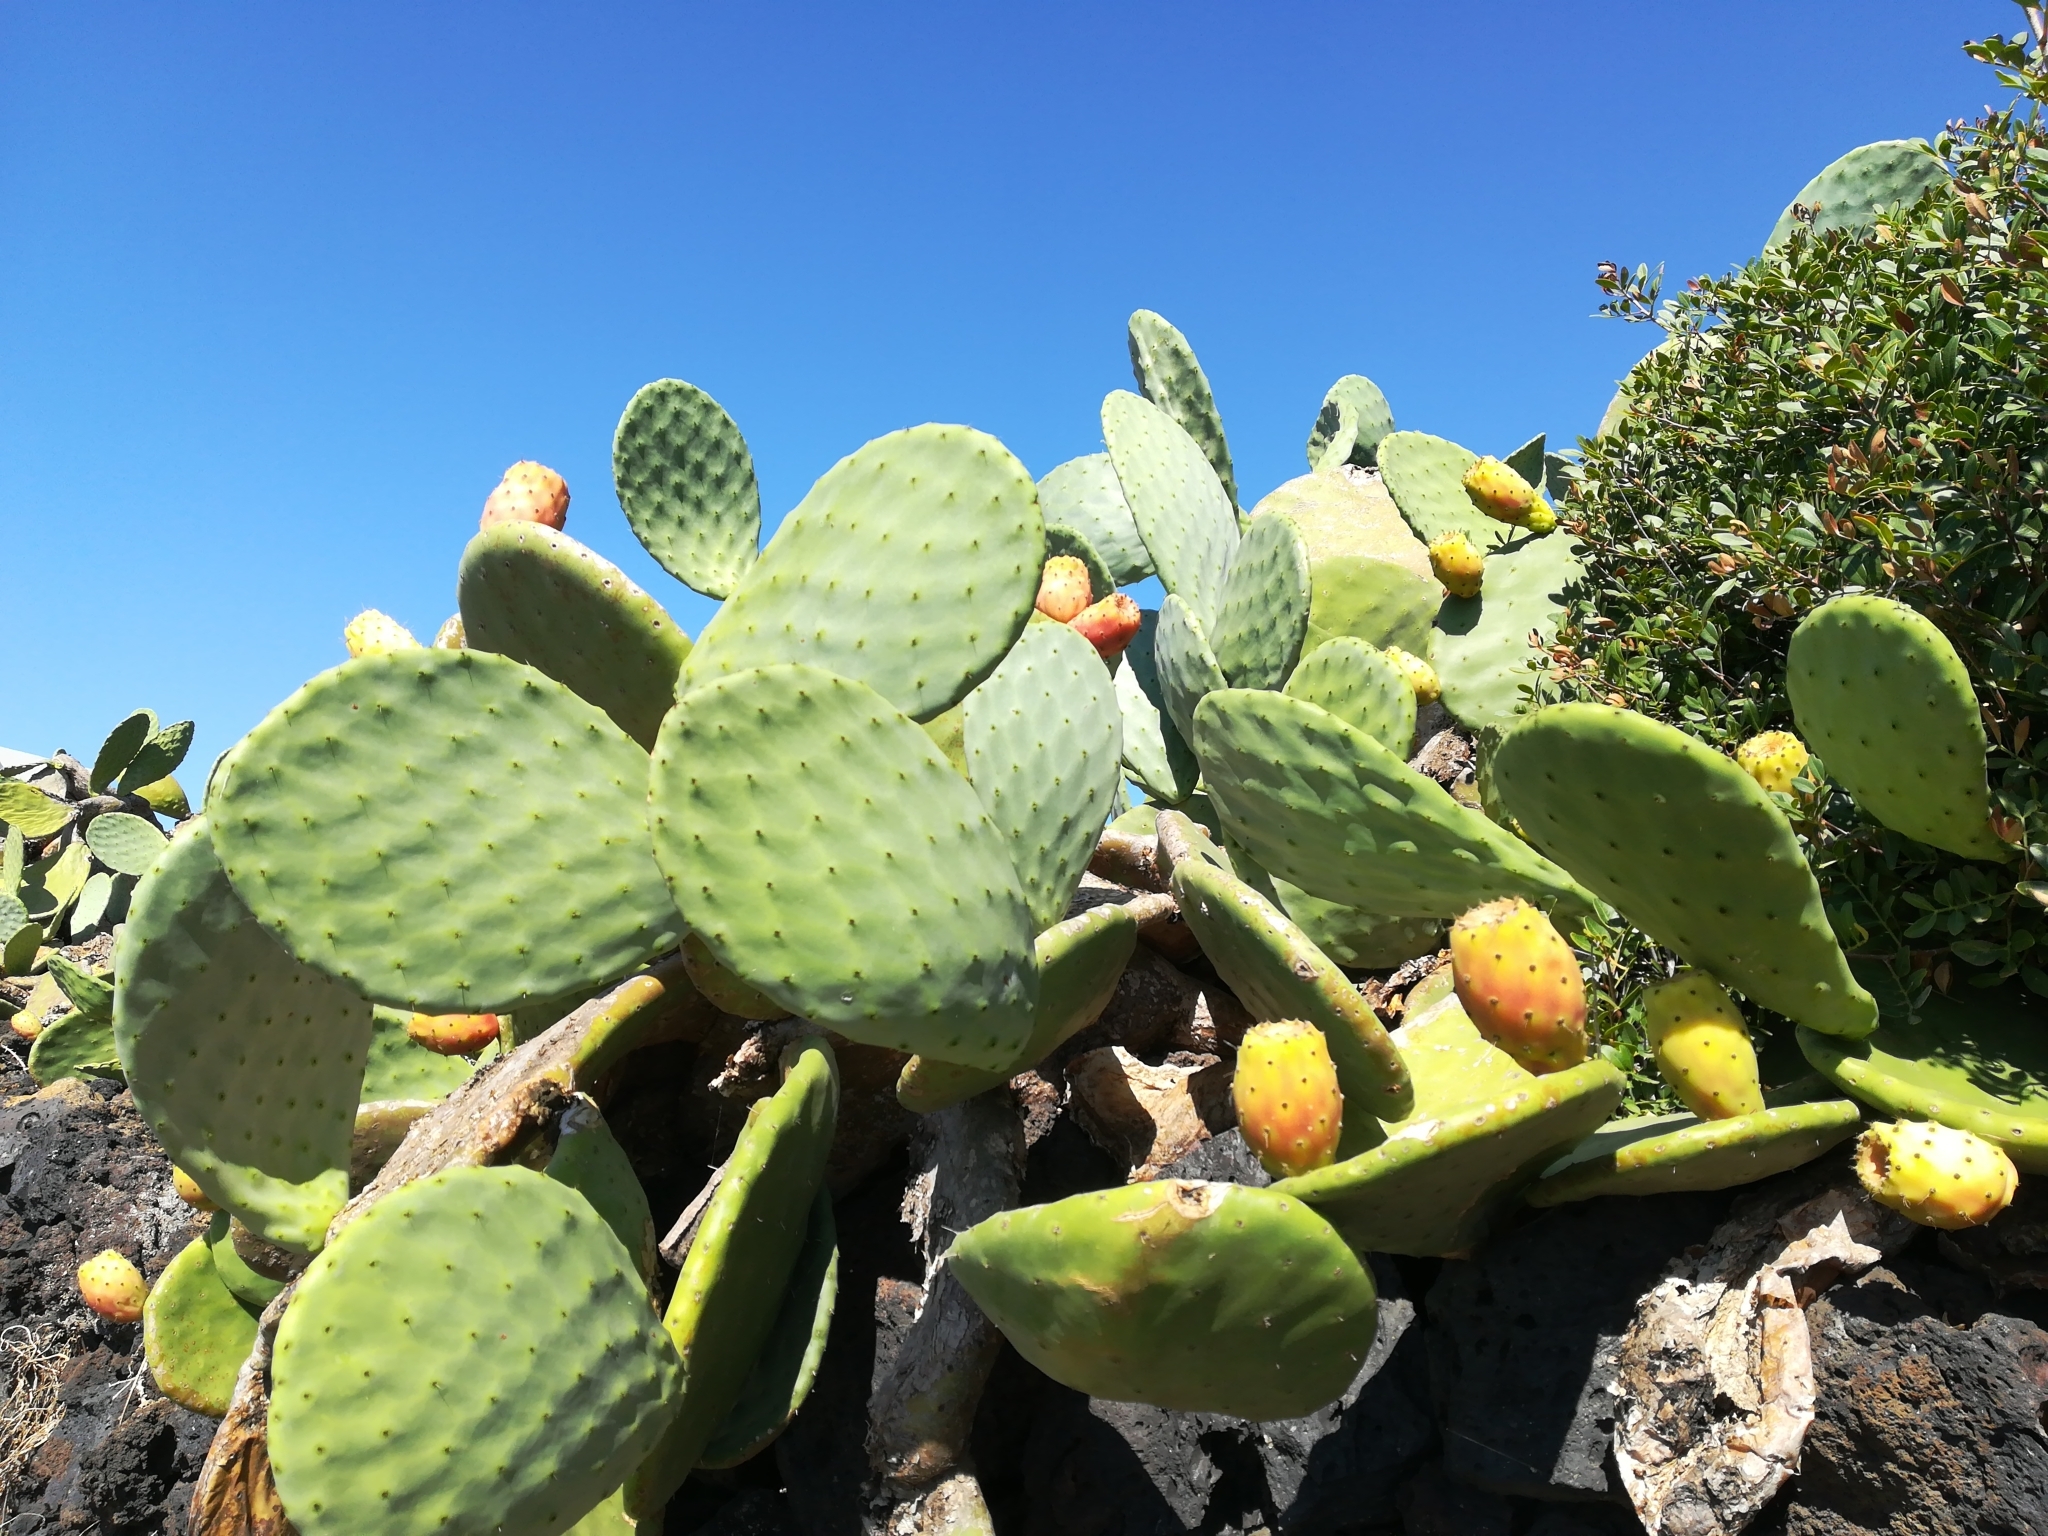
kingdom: Plantae
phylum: Tracheophyta
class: Magnoliopsida
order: Caryophyllales
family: Cactaceae
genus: Opuntia
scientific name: Opuntia ficus-indica
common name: Barbary fig
